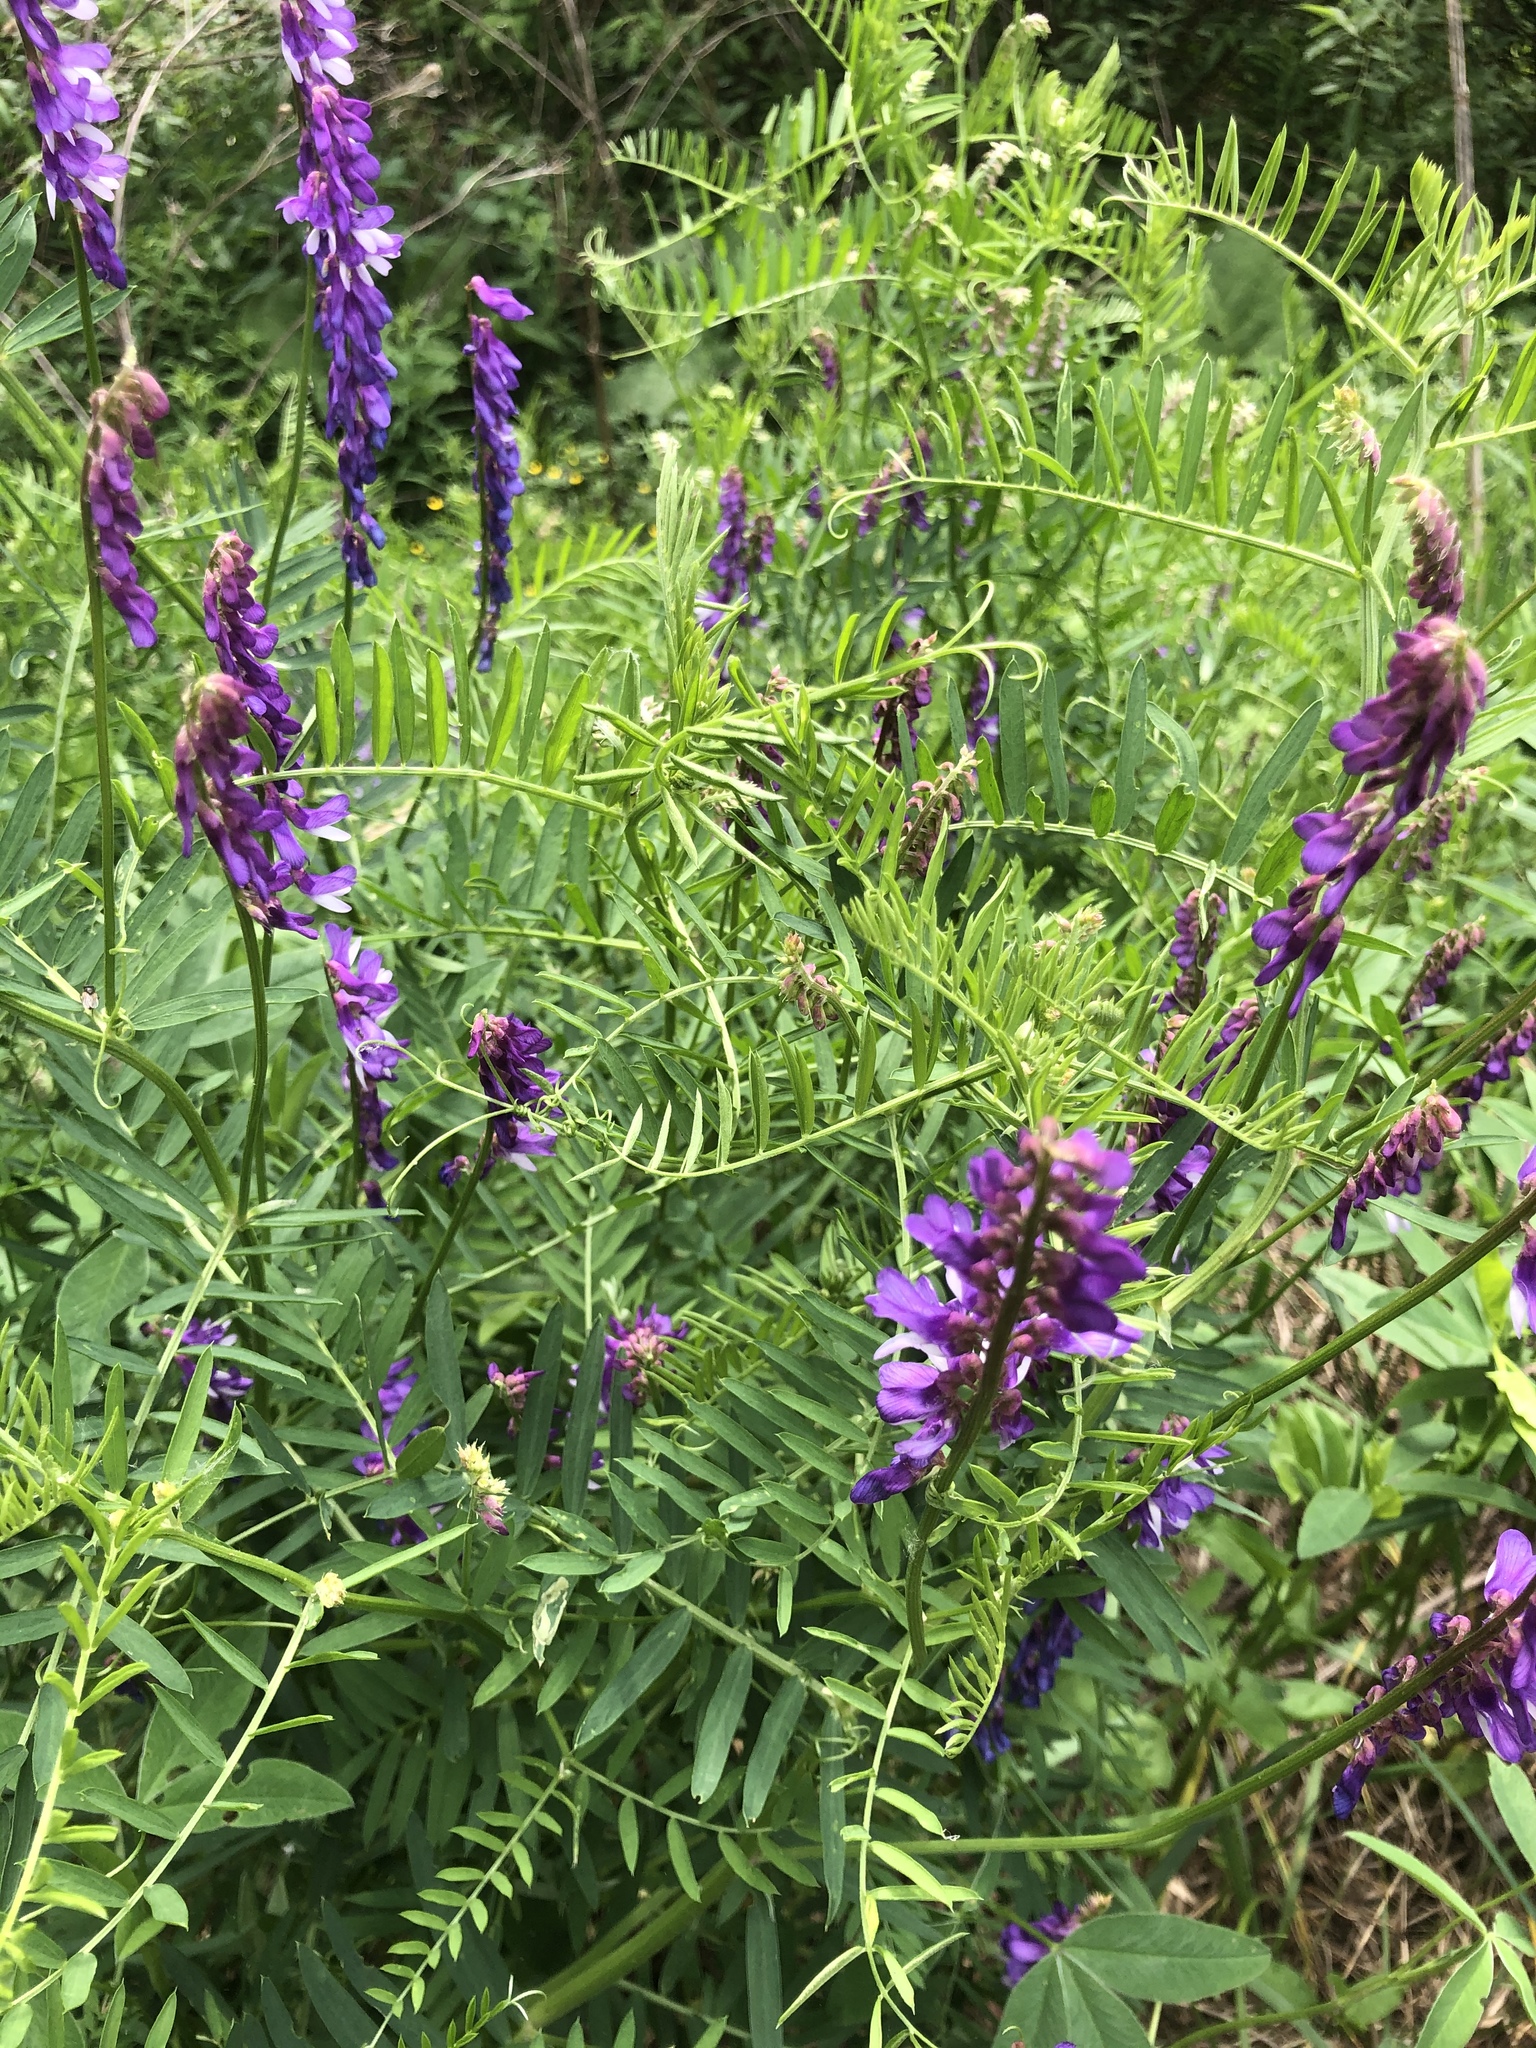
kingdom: Plantae
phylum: Tracheophyta
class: Magnoliopsida
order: Fabales
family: Fabaceae
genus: Vicia
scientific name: Vicia tenuifolia
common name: Fine-leaved vetch
